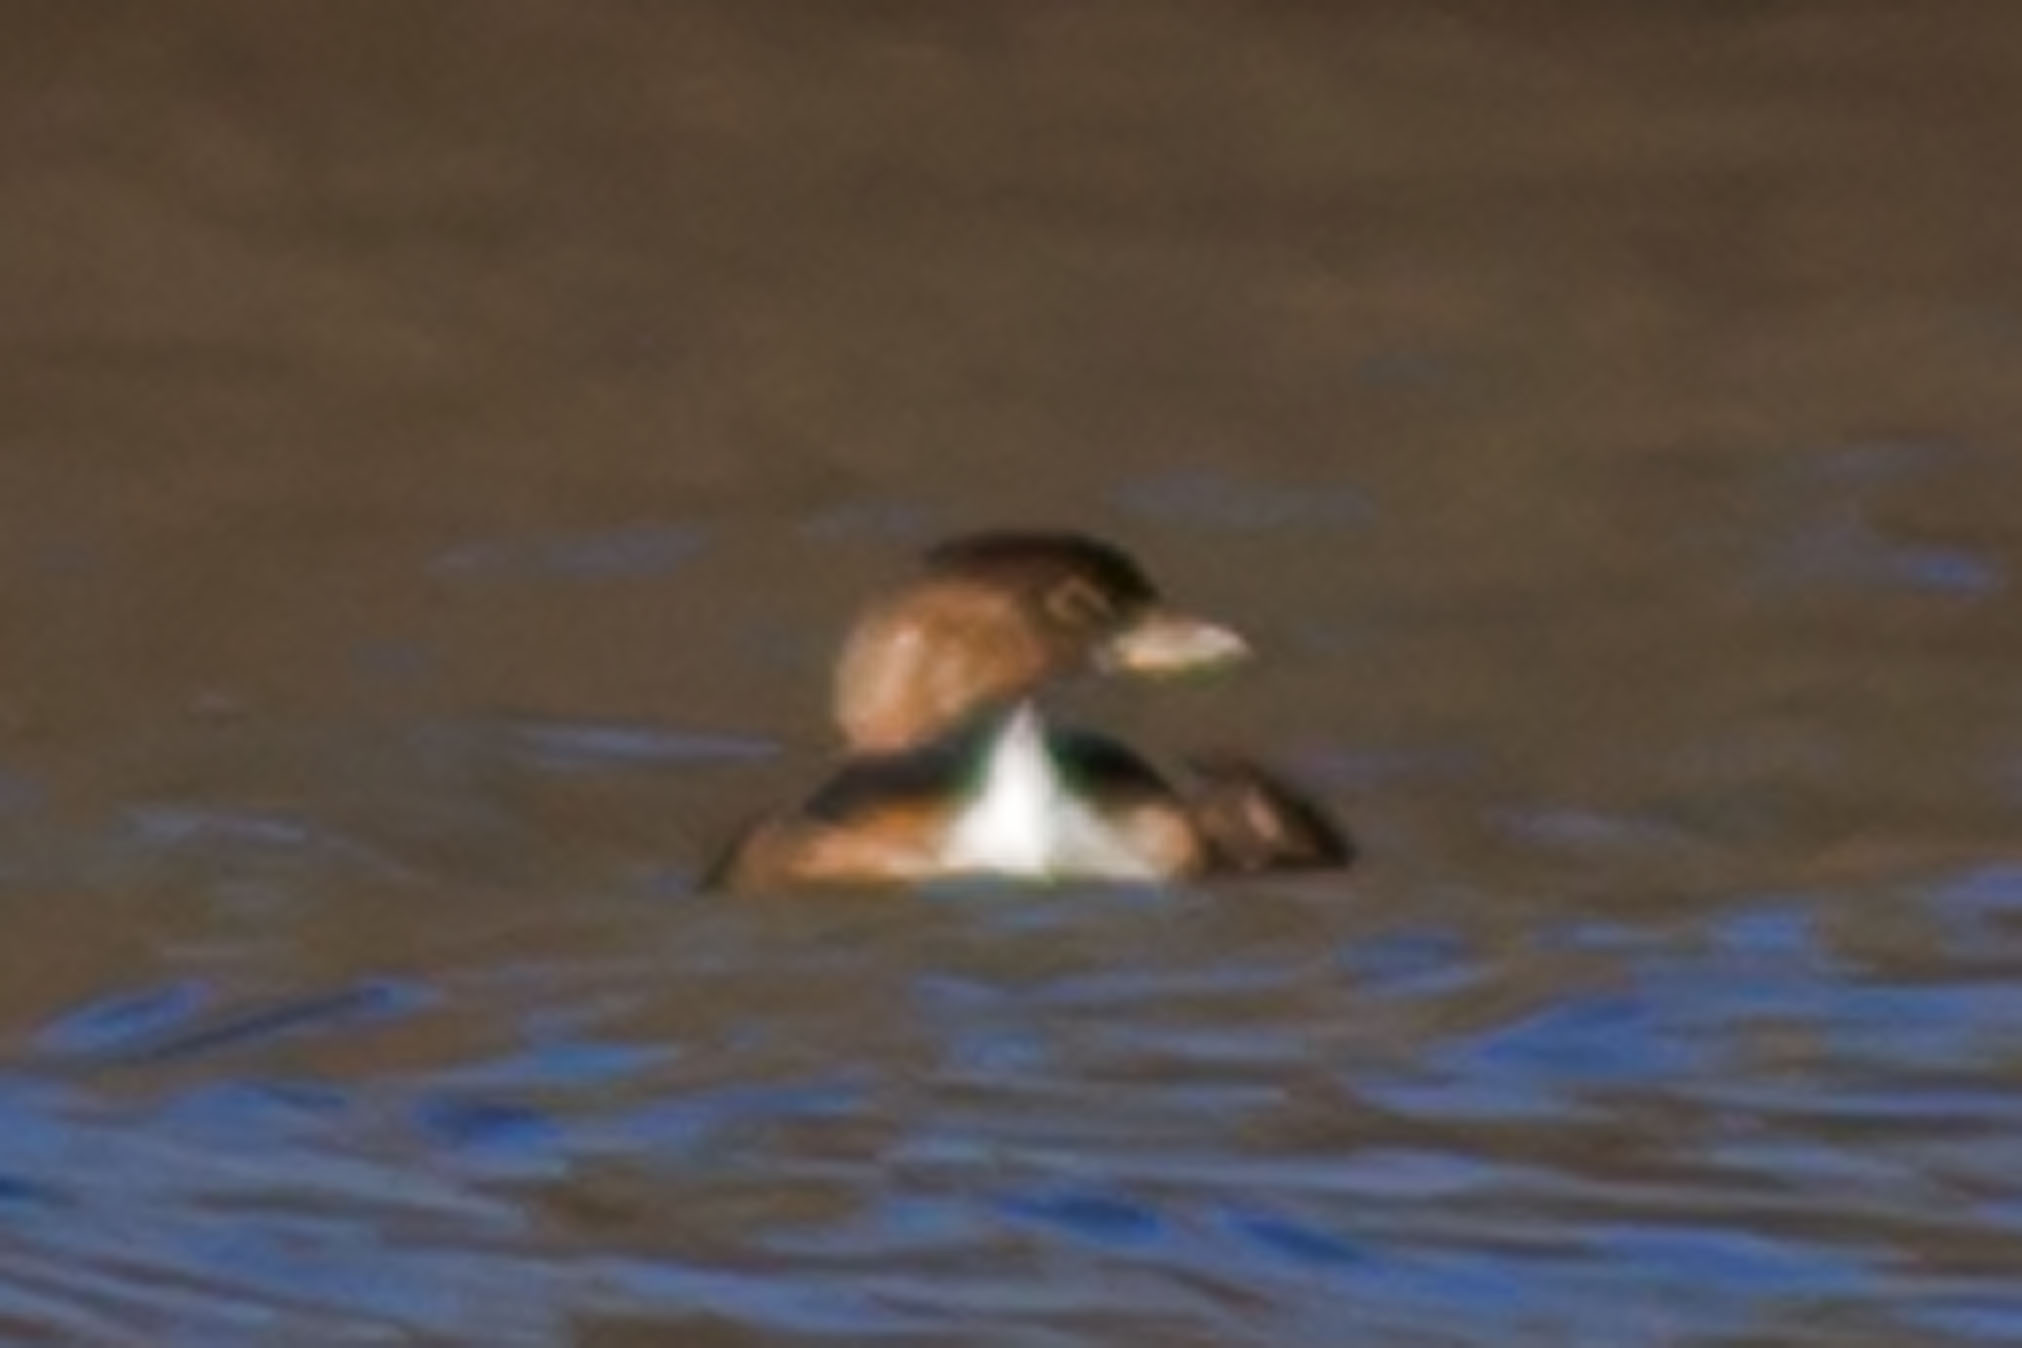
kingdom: Animalia
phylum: Chordata
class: Aves
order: Podicipediformes
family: Podicipedidae
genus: Podilymbus
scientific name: Podilymbus podiceps
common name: Pied-billed grebe
